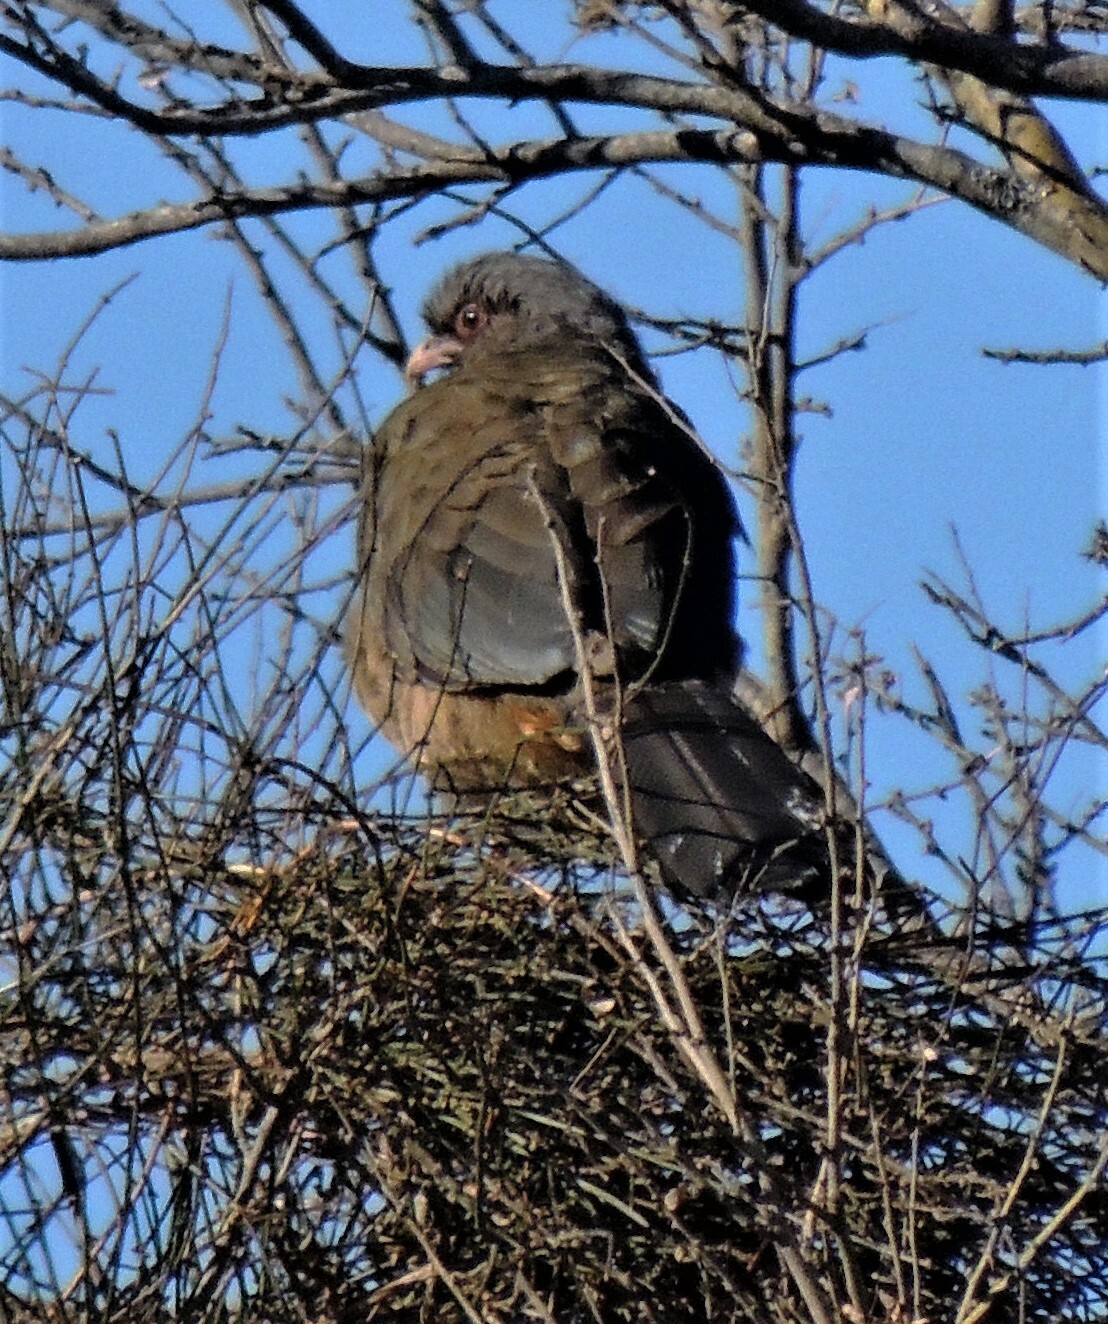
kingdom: Animalia
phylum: Chordata
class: Aves
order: Galliformes
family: Cracidae
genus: Ortalis
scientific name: Ortalis canicollis
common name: Chaco chachalaca
